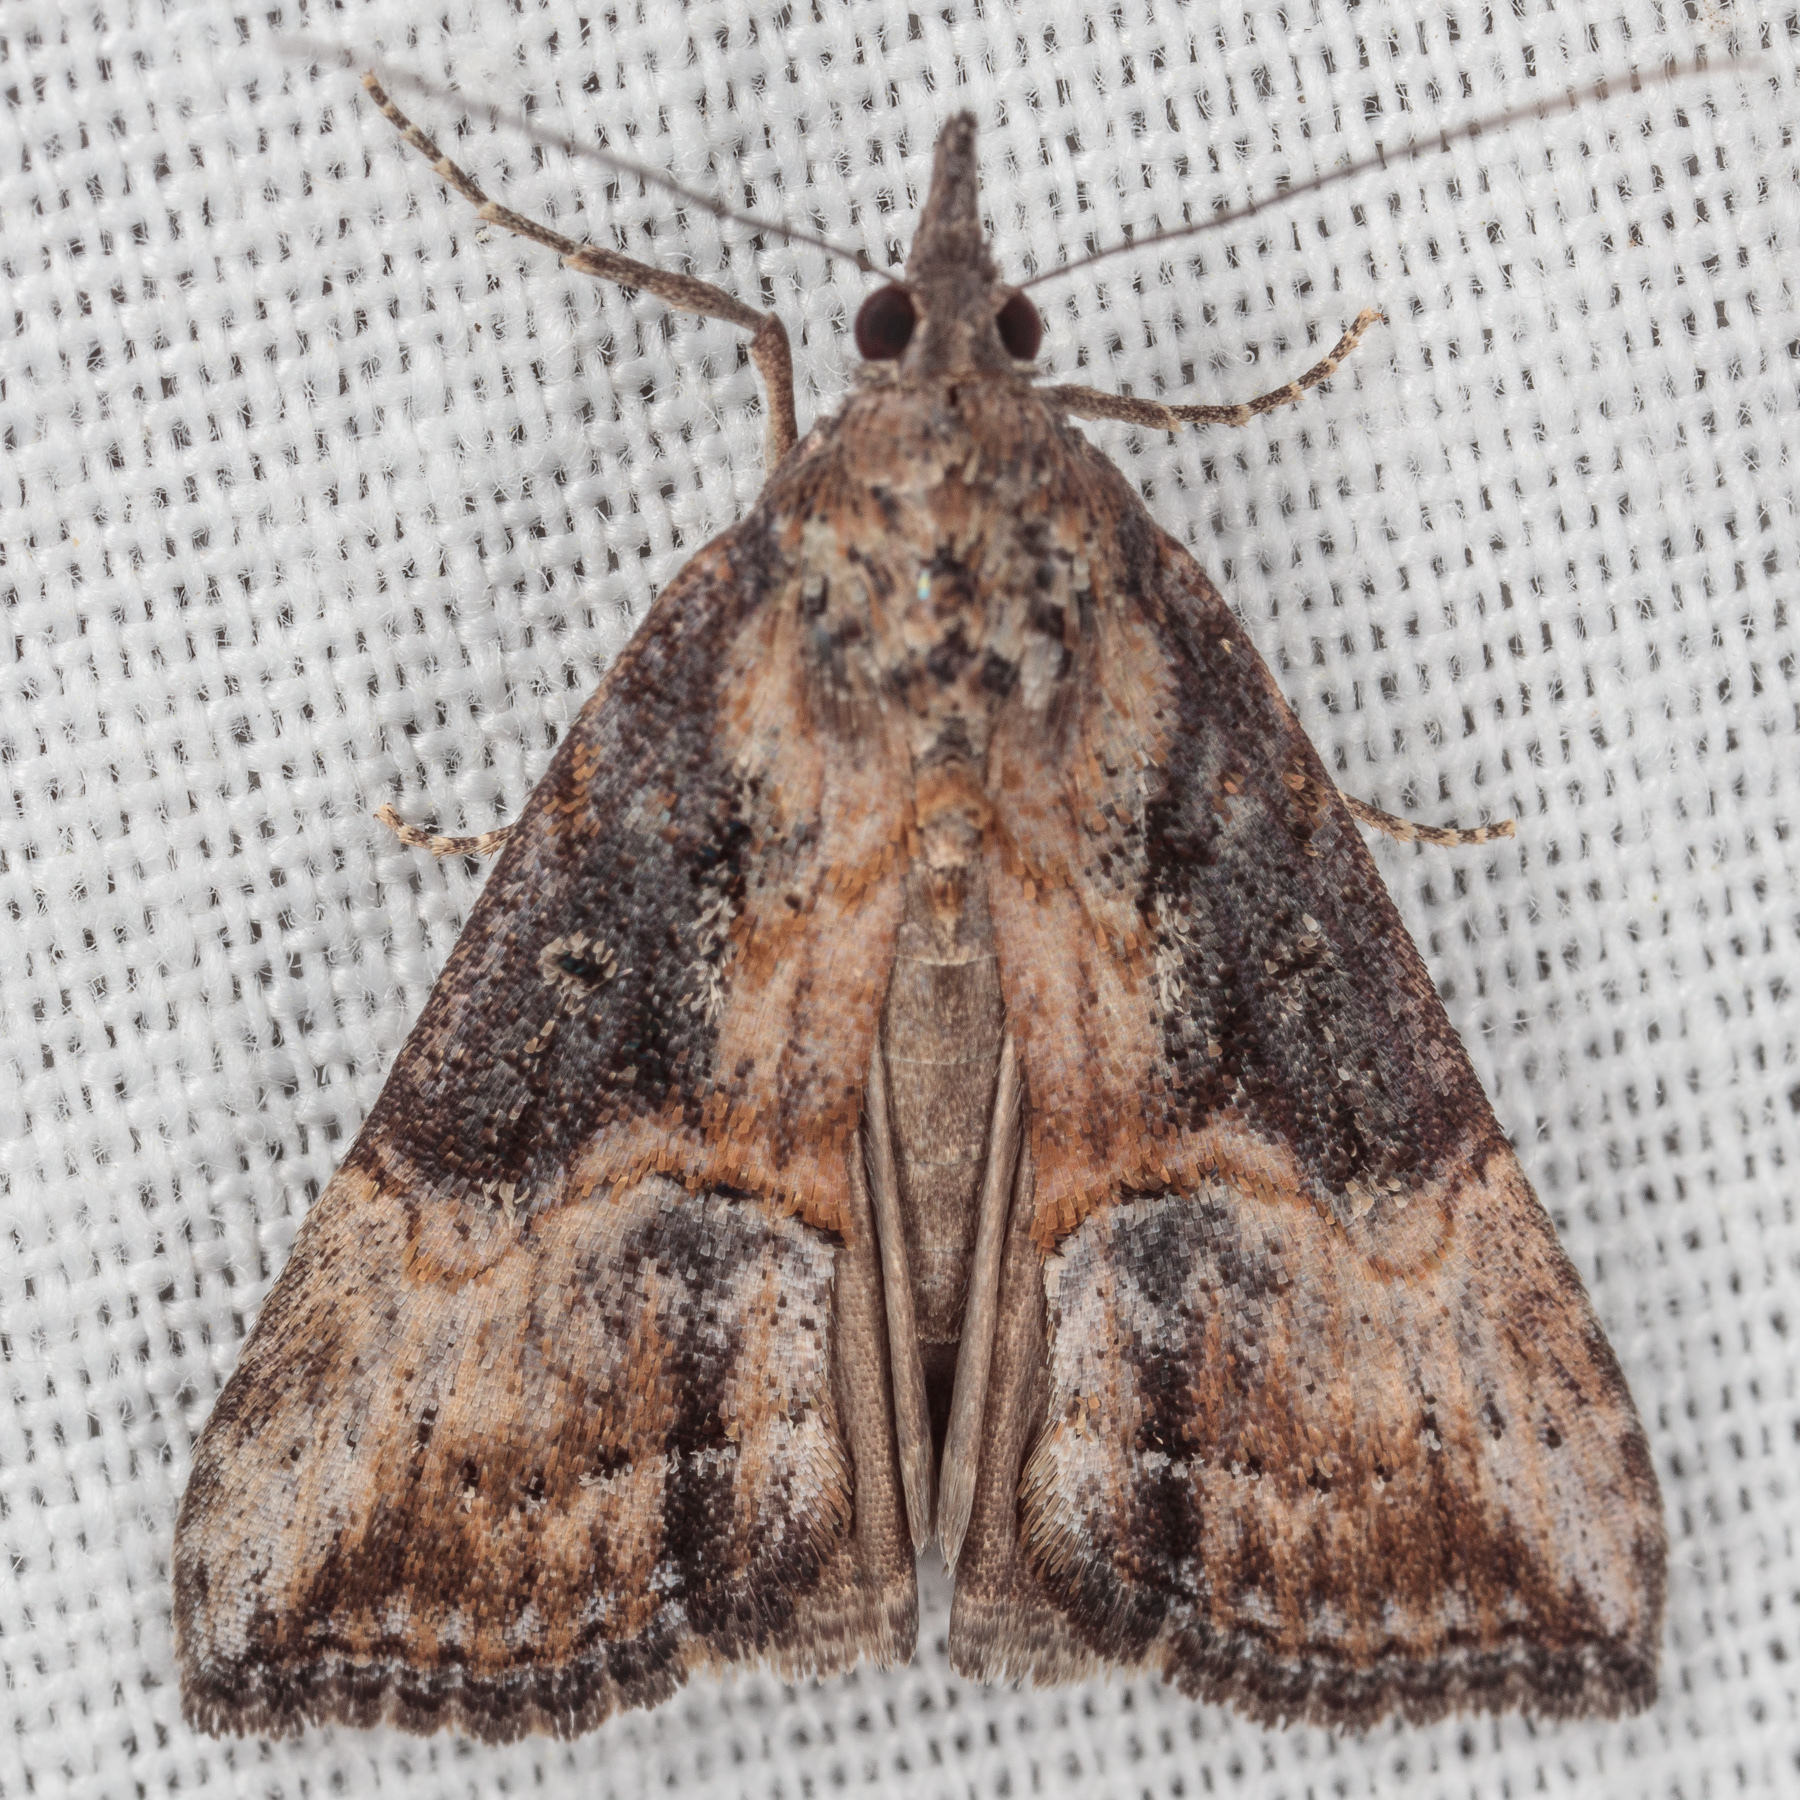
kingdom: Animalia
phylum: Arthropoda
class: Insecta
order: Lepidoptera
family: Erebidae
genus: Hypena
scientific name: Hypena scabra
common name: Green cloverworm
